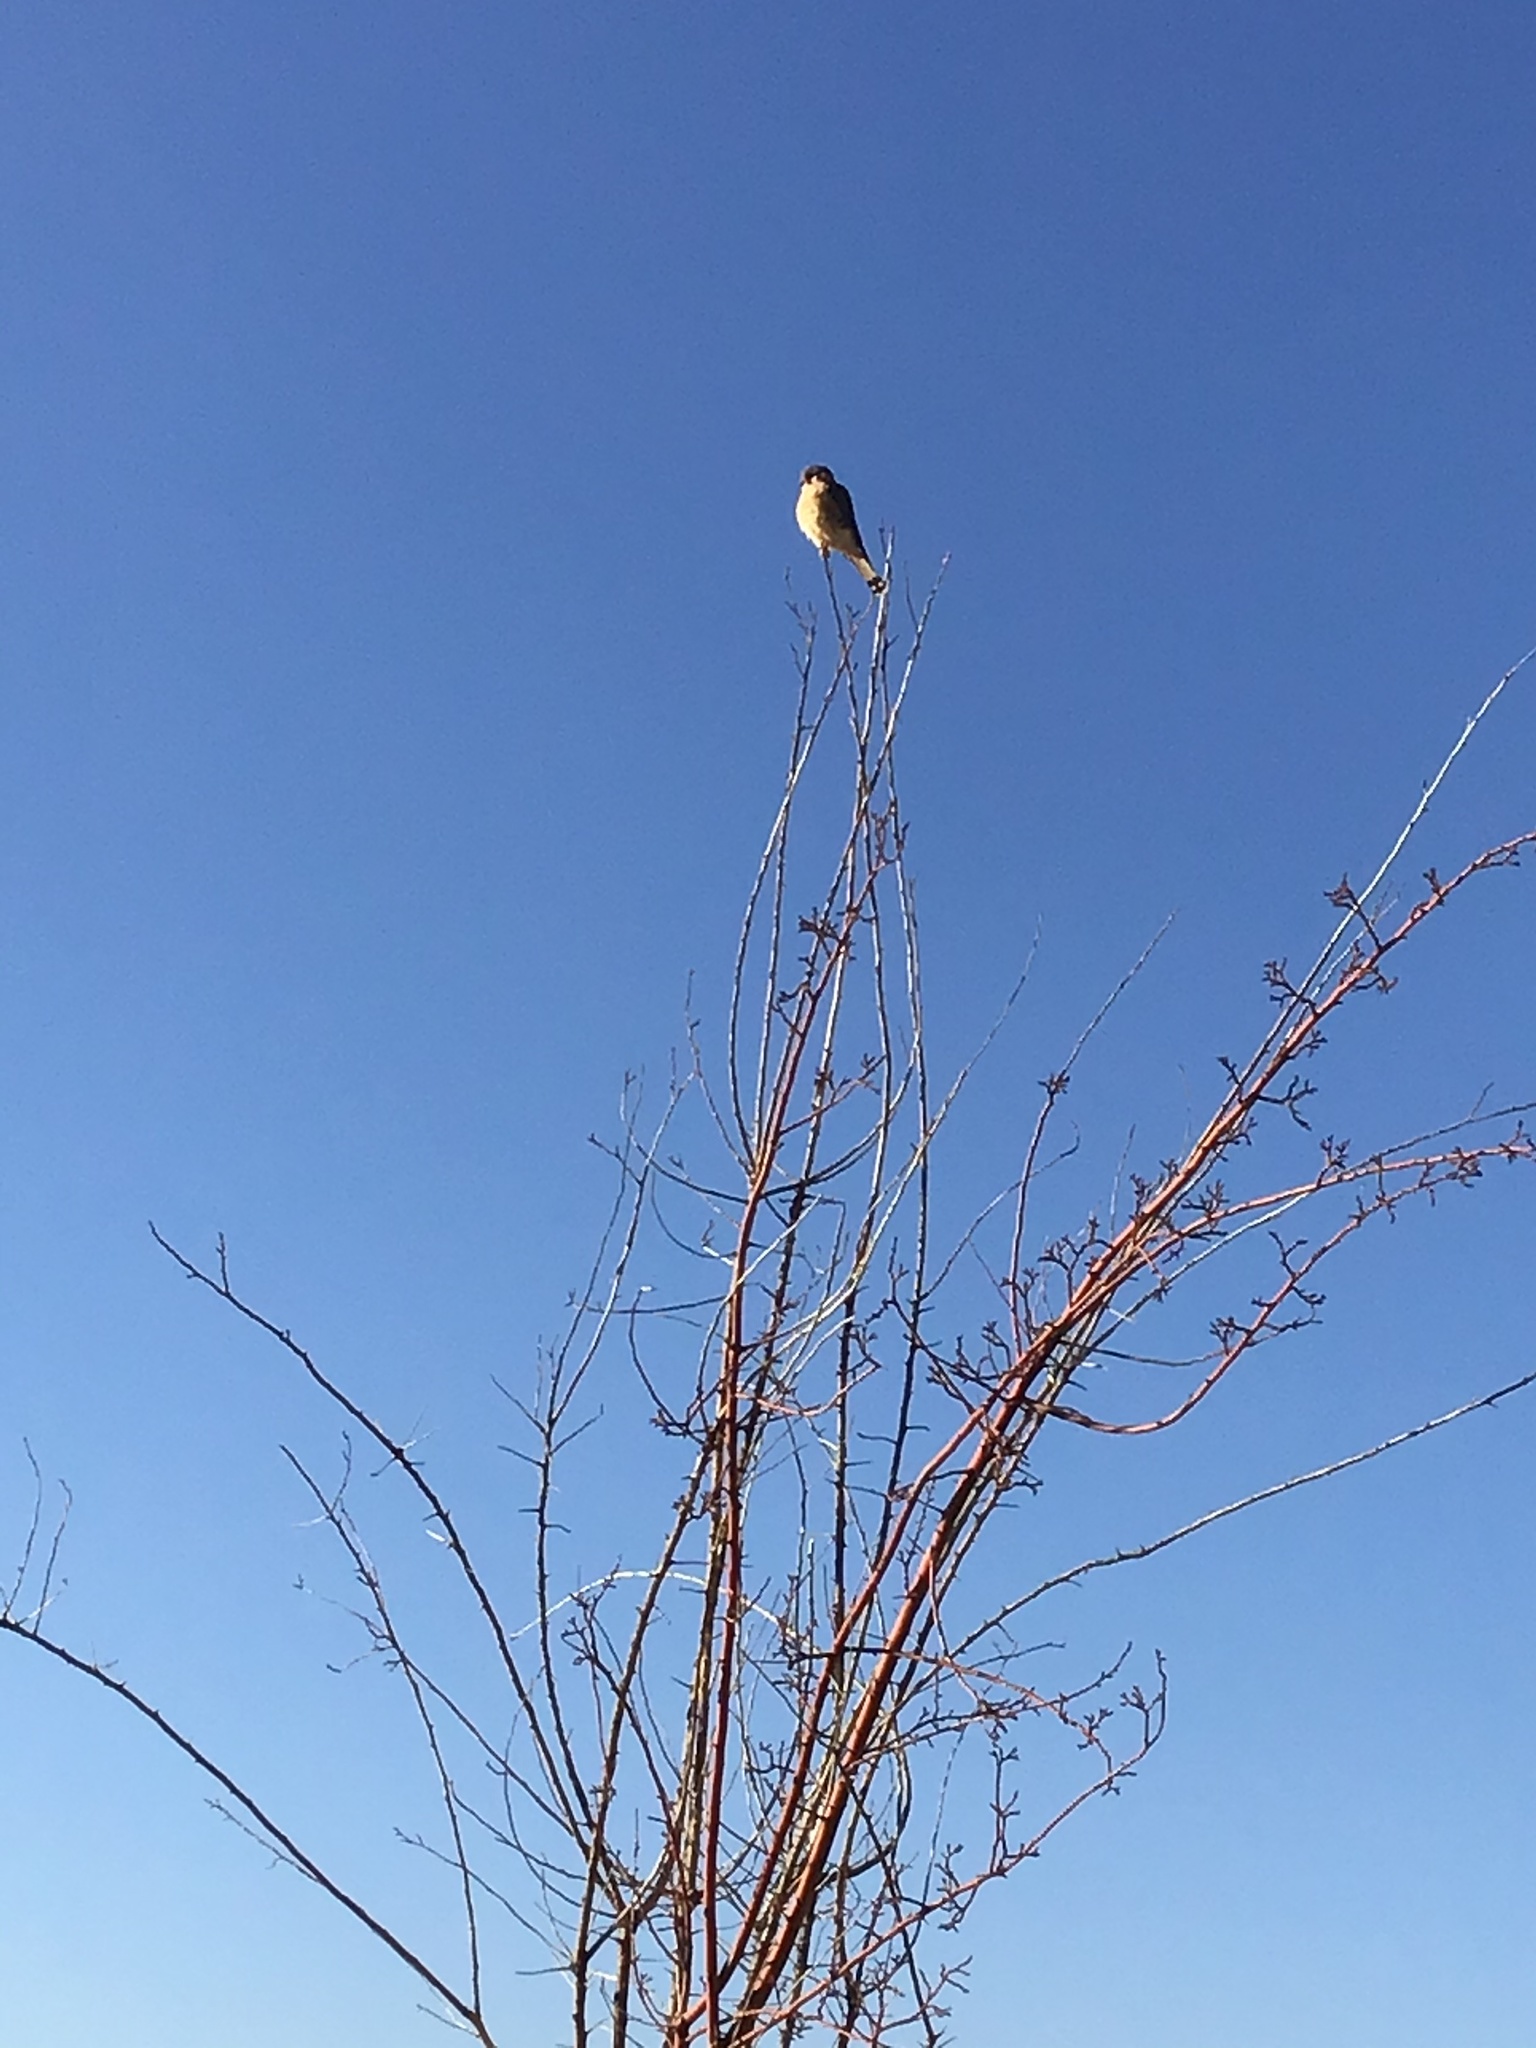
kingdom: Animalia
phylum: Chordata
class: Aves
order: Falconiformes
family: Falconidae
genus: Falco
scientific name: Falco sparverius
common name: American kestrel
